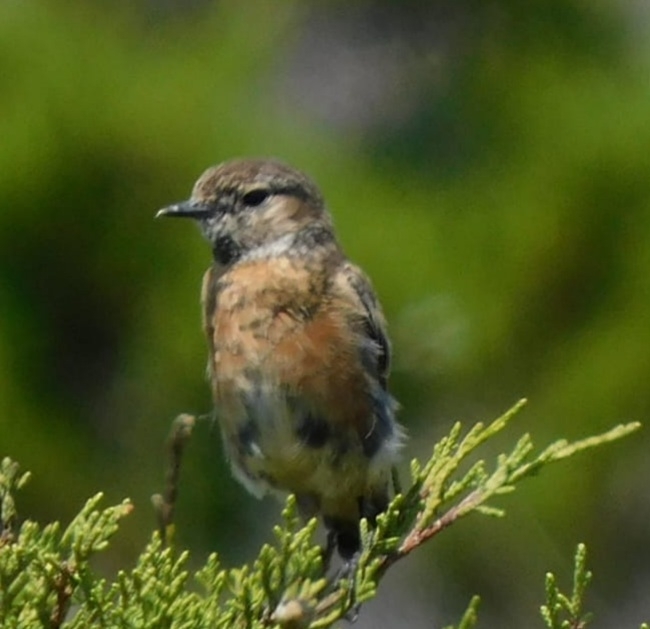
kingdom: Animalia
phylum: Chordata
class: Aves
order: Passeriformes
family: Muscicapidae
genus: Saxicola
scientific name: Saxicola rubicola
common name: European stonechat
